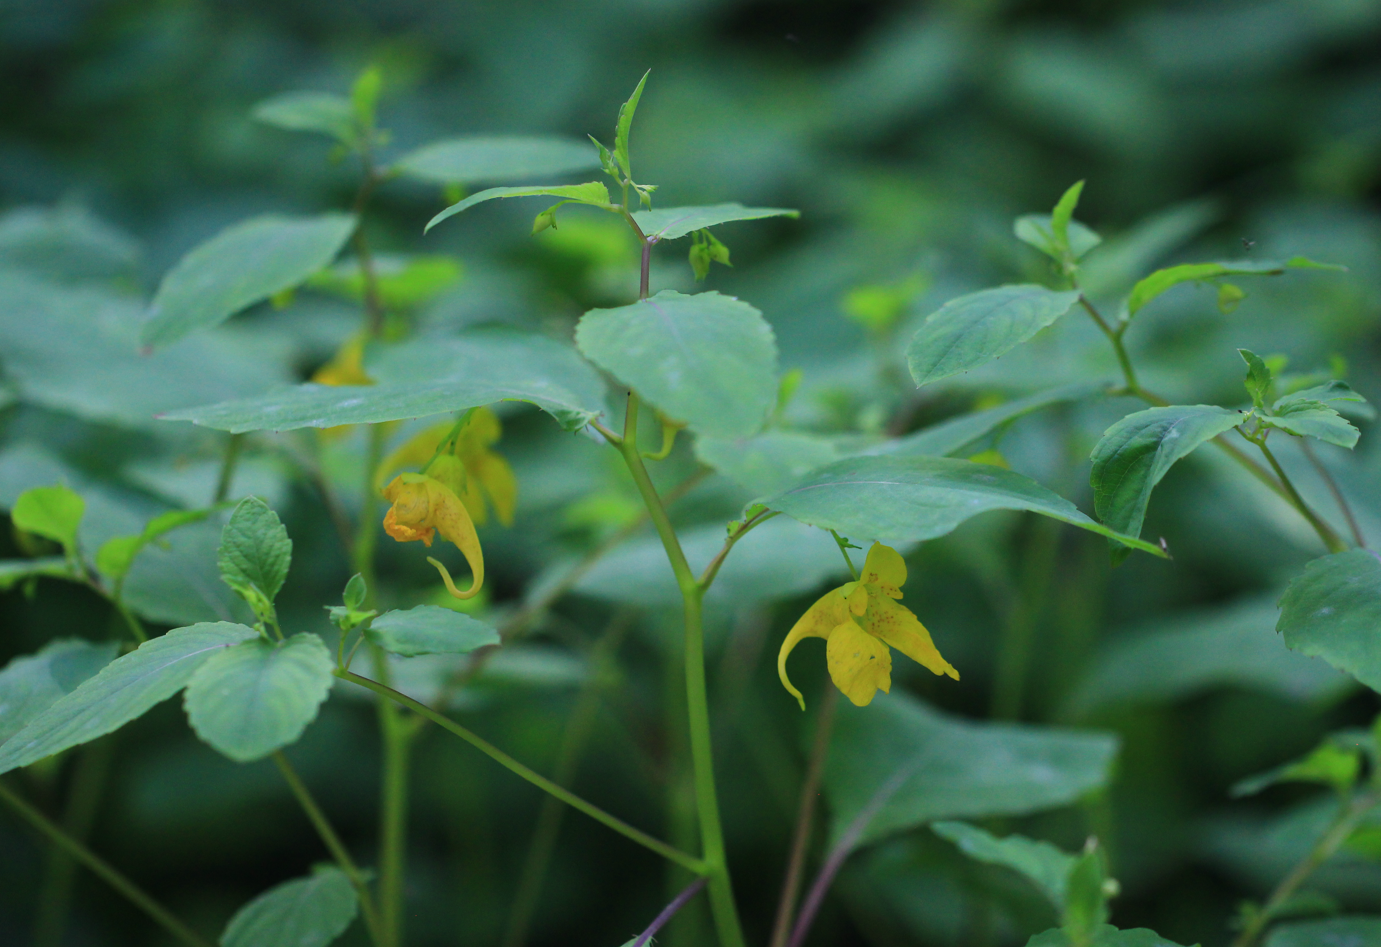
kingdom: Plantae
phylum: Tracheophyta
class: Magnoliopsida
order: Ericales
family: Balsaminaceae
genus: Impatiens
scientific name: Impatiens noli-tangere
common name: Touch-me-not balsam
